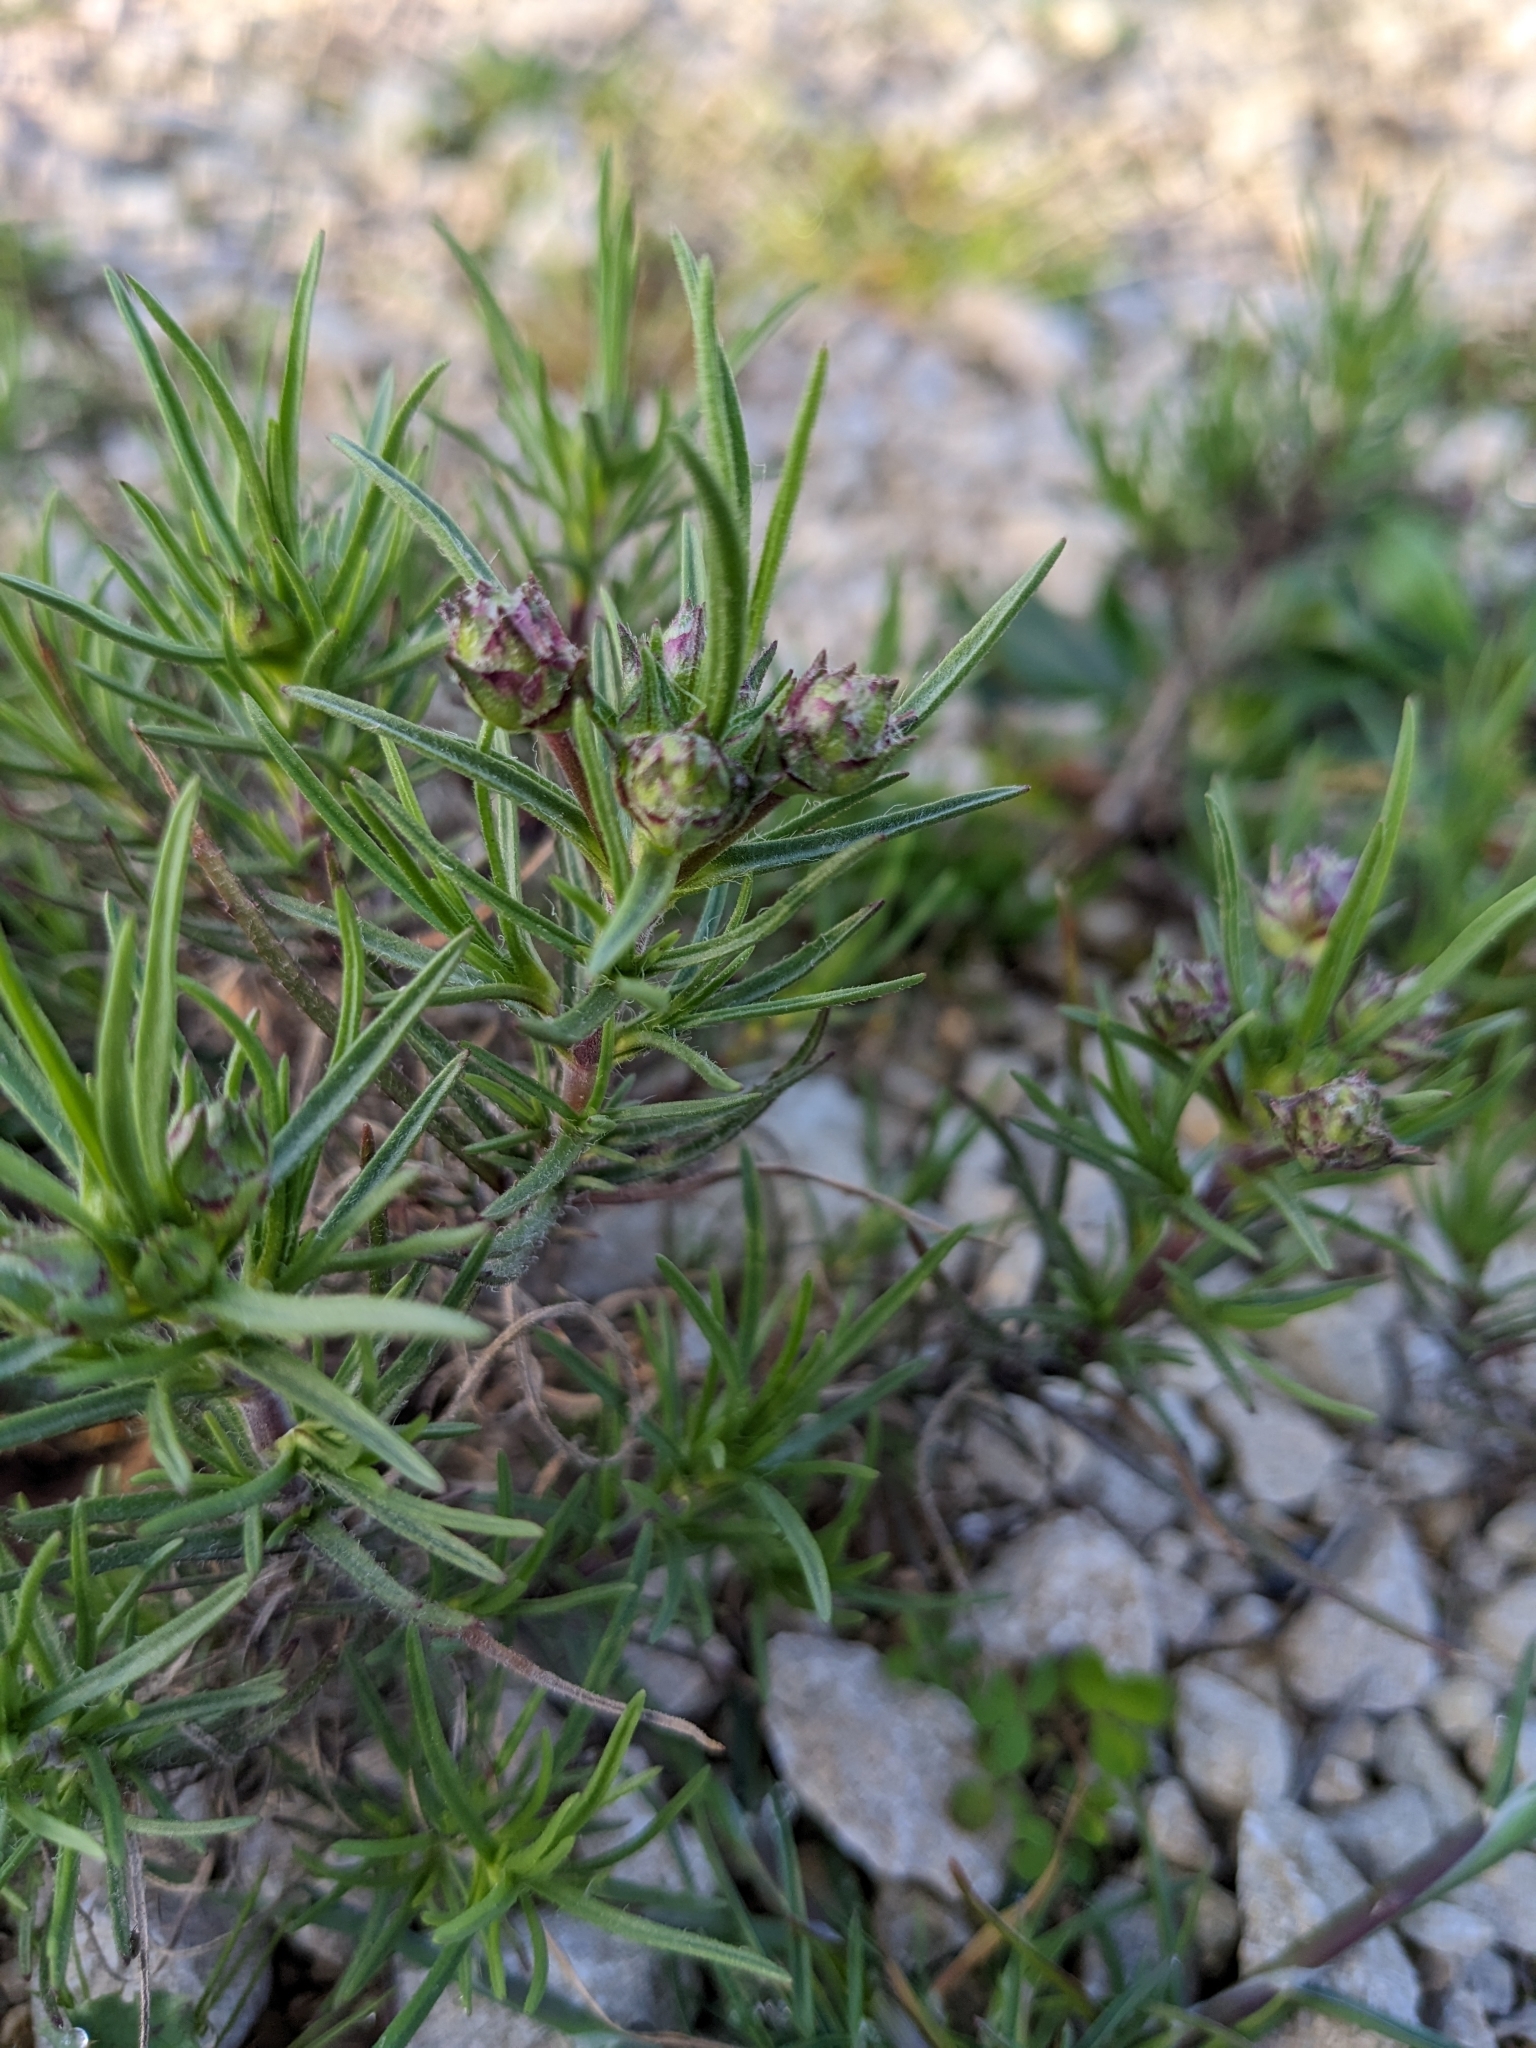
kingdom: Plantae
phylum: Tracheophyta
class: Magnoliopsida
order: Lamiales
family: Plantaginaceae
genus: Plantago
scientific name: Plantago sempervirens
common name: Shrubby plantain
